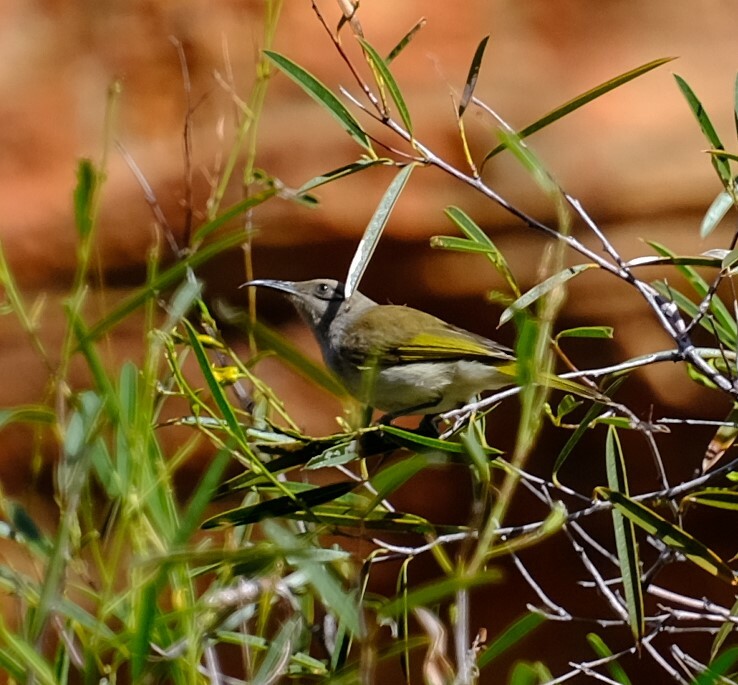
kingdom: Animalia
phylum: Chordata
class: Aves
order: Passeriformes
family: Meliphagidae
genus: Lichmera
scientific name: Lichmera indistincta
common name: Brown honeyeater
